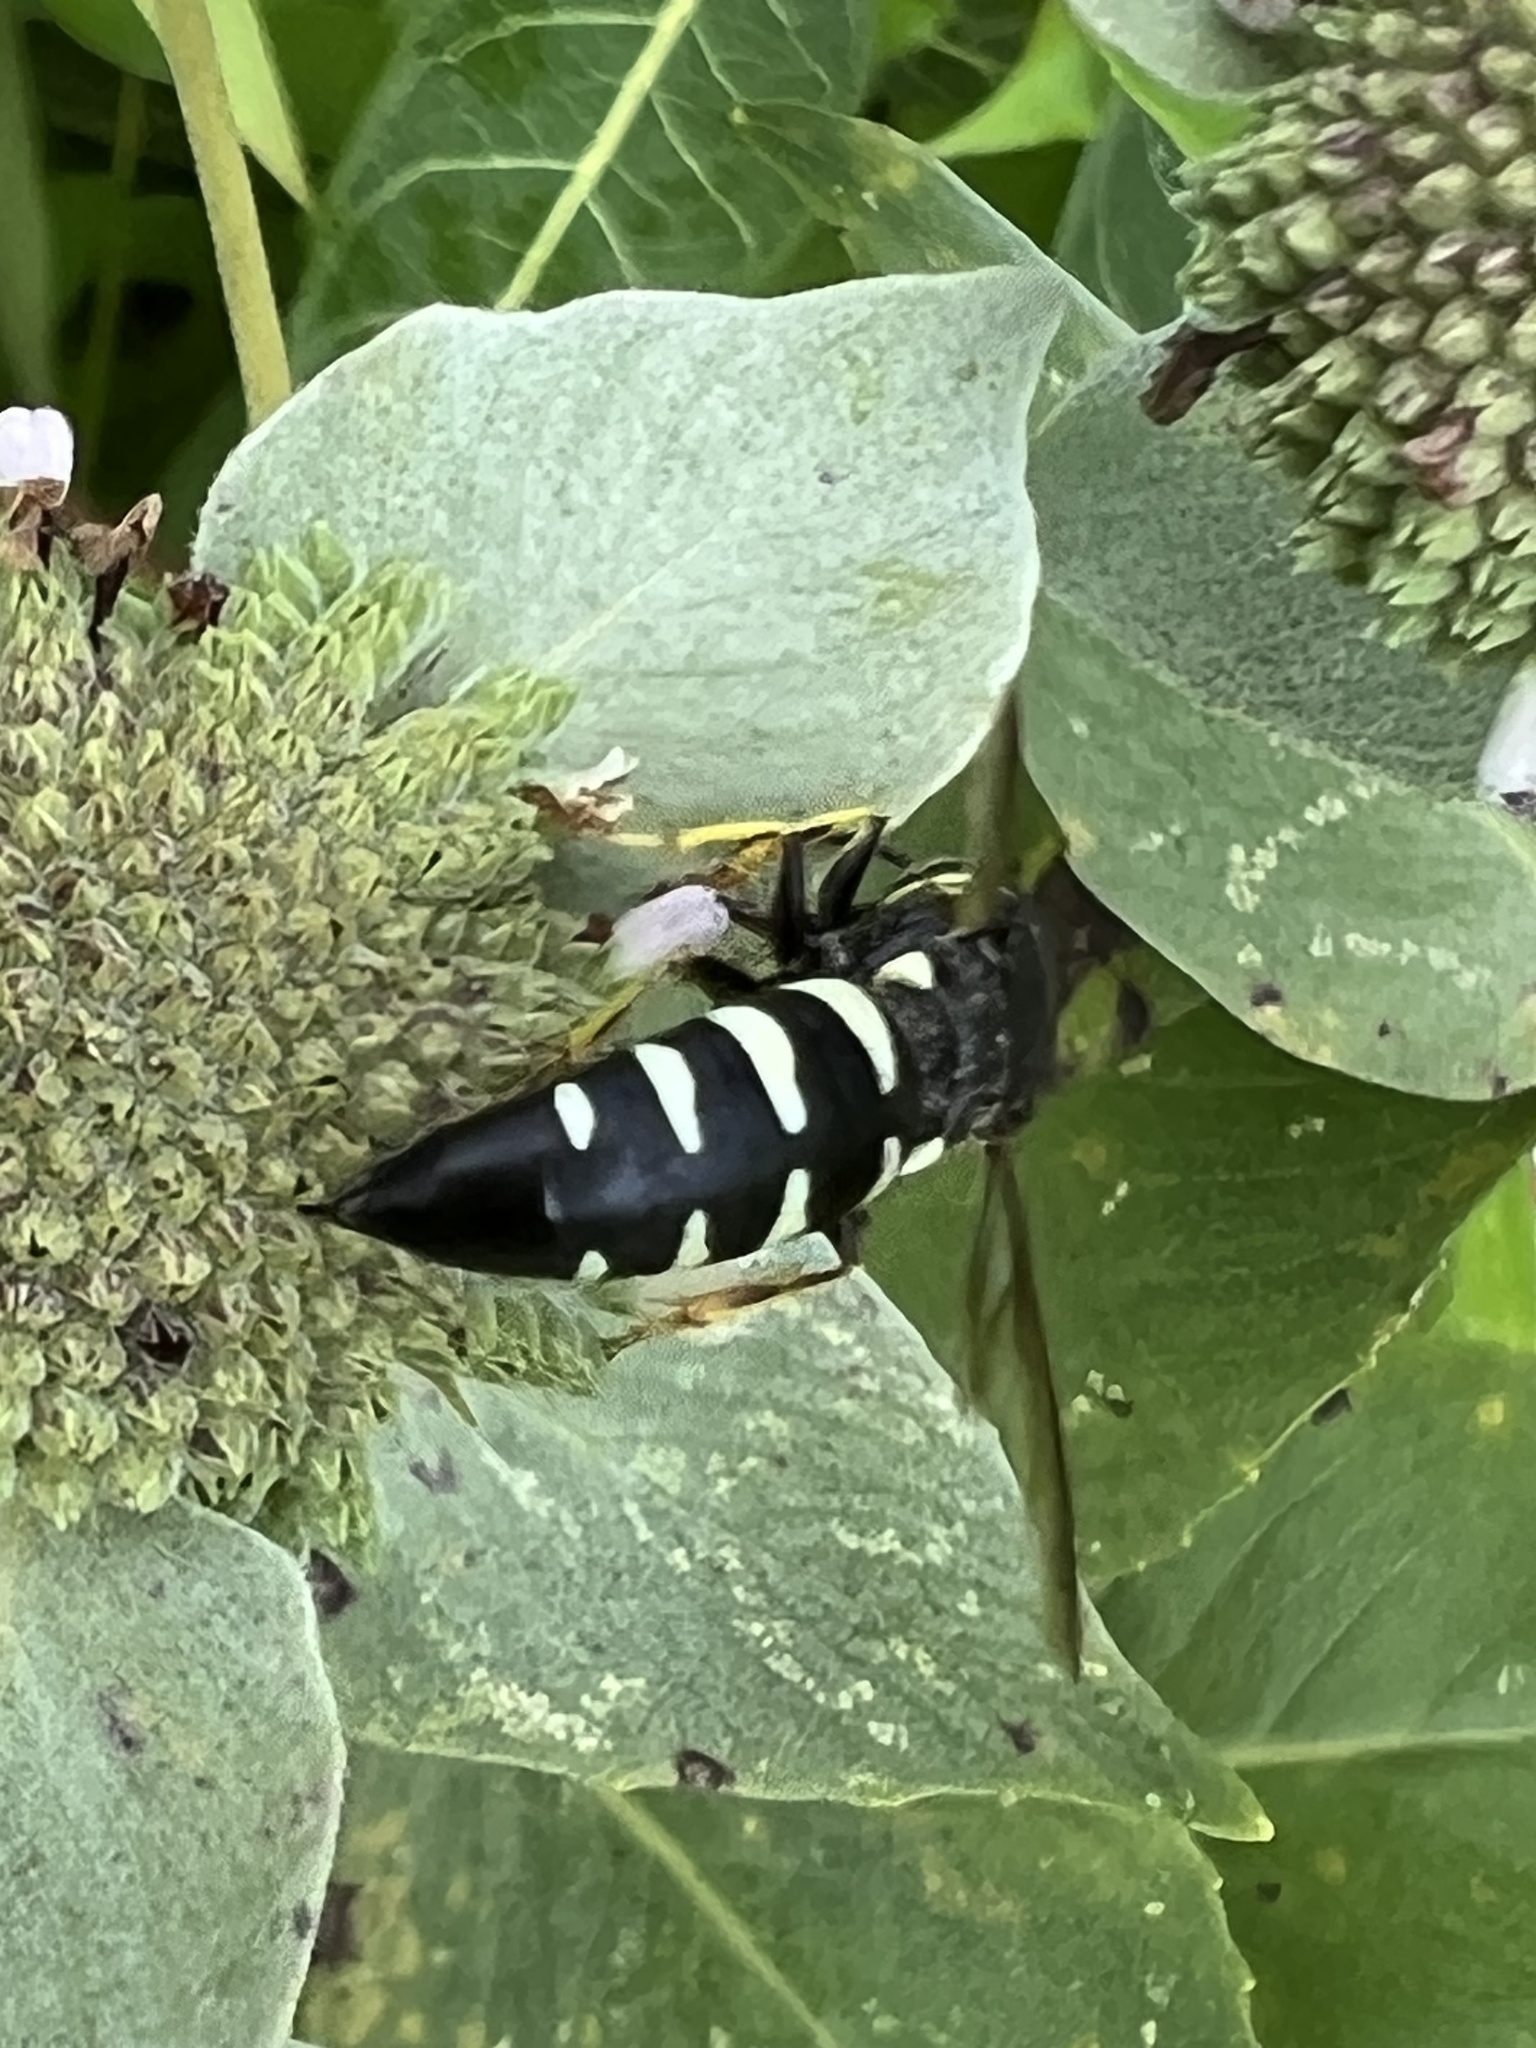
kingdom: Animalia
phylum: Arthropoda
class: Insecta
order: Hymenoptera
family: Crabronidae
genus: Bicyrtes
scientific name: Bicyrtes quadrifasciatus
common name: Four-banded stink bug hunter wasp
